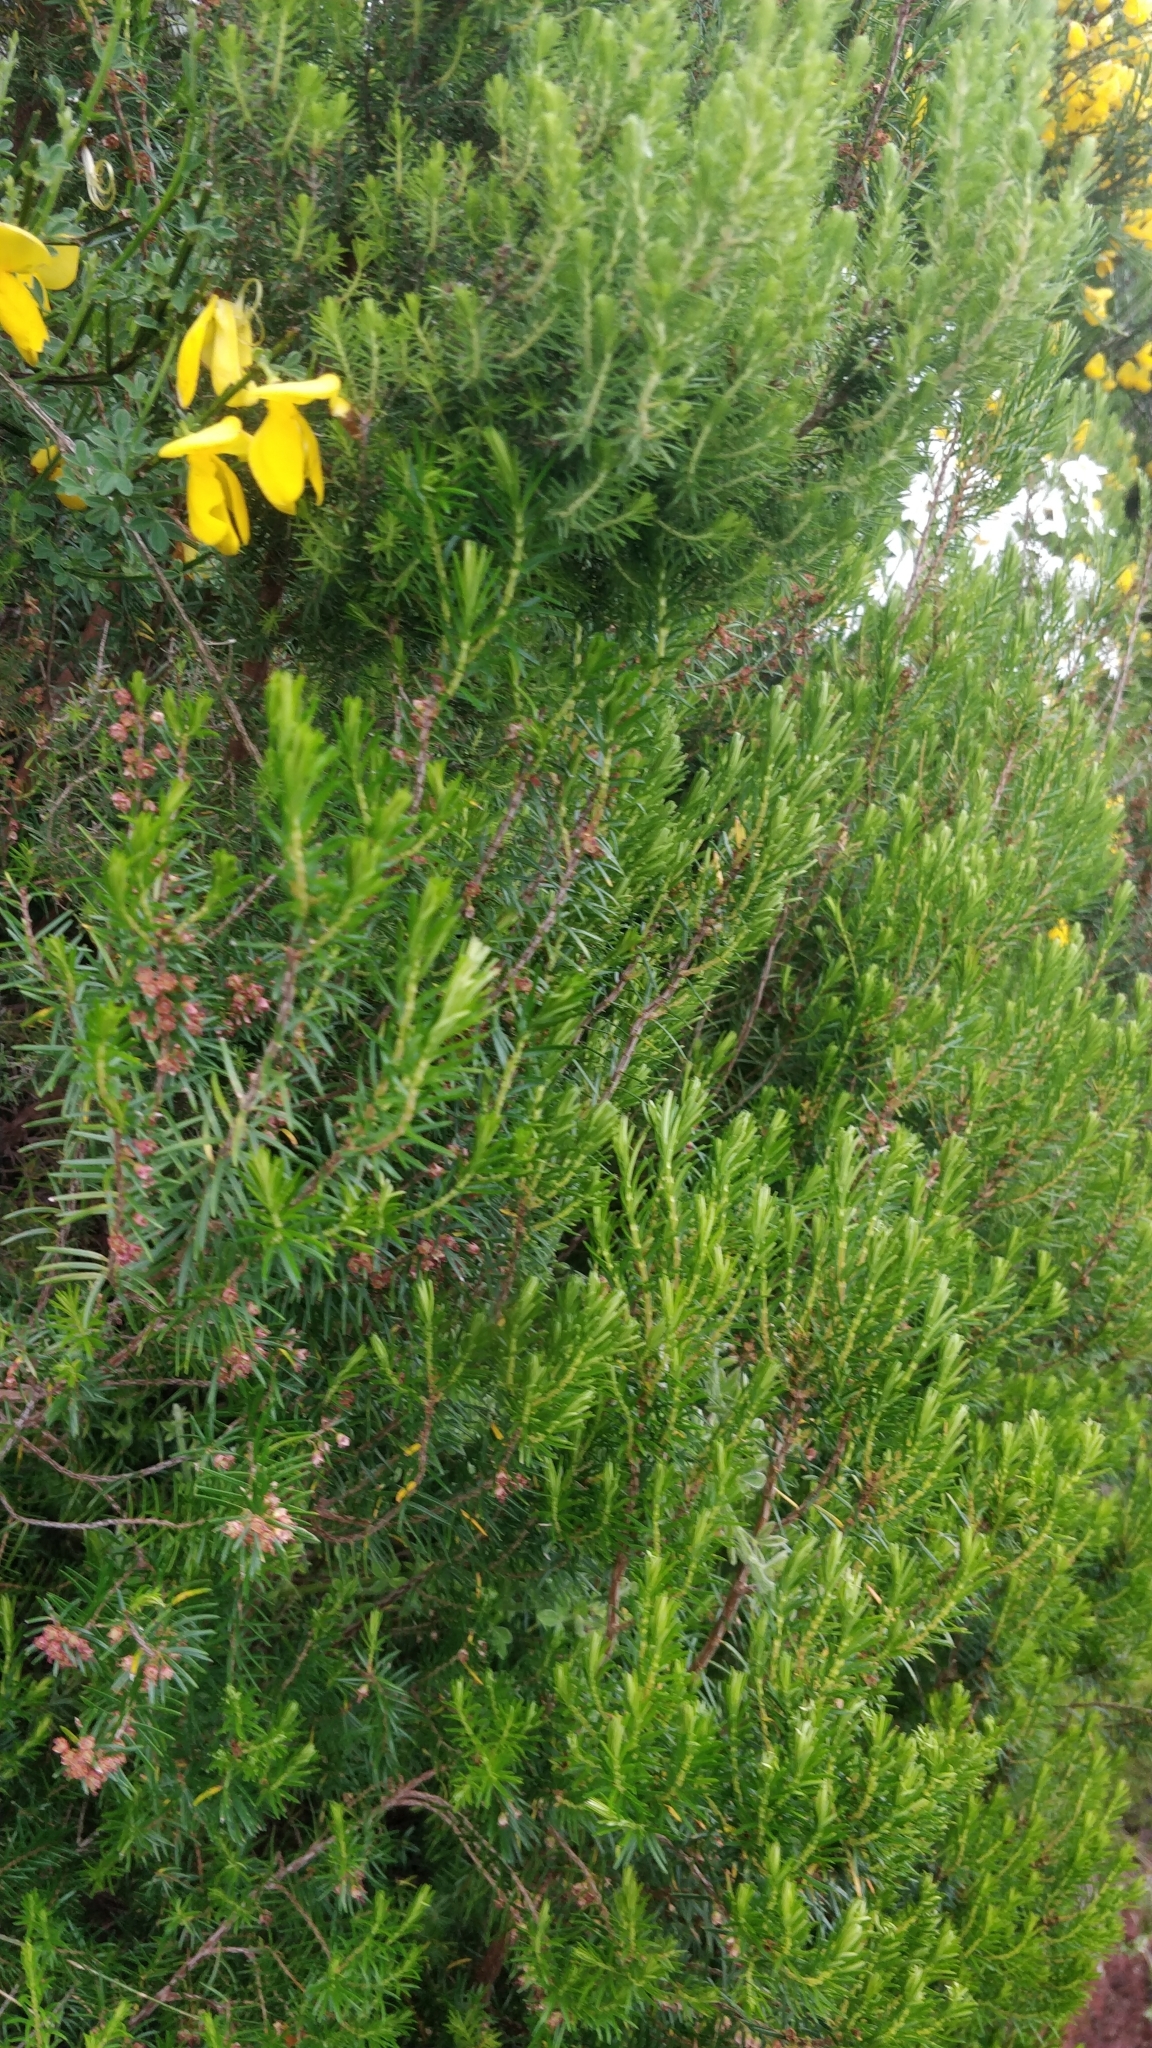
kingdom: Plantae
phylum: Tracheophyta
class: Magnoliopsida
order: Ericales
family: Ericaceae
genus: Erica
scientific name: Erica platycodon
